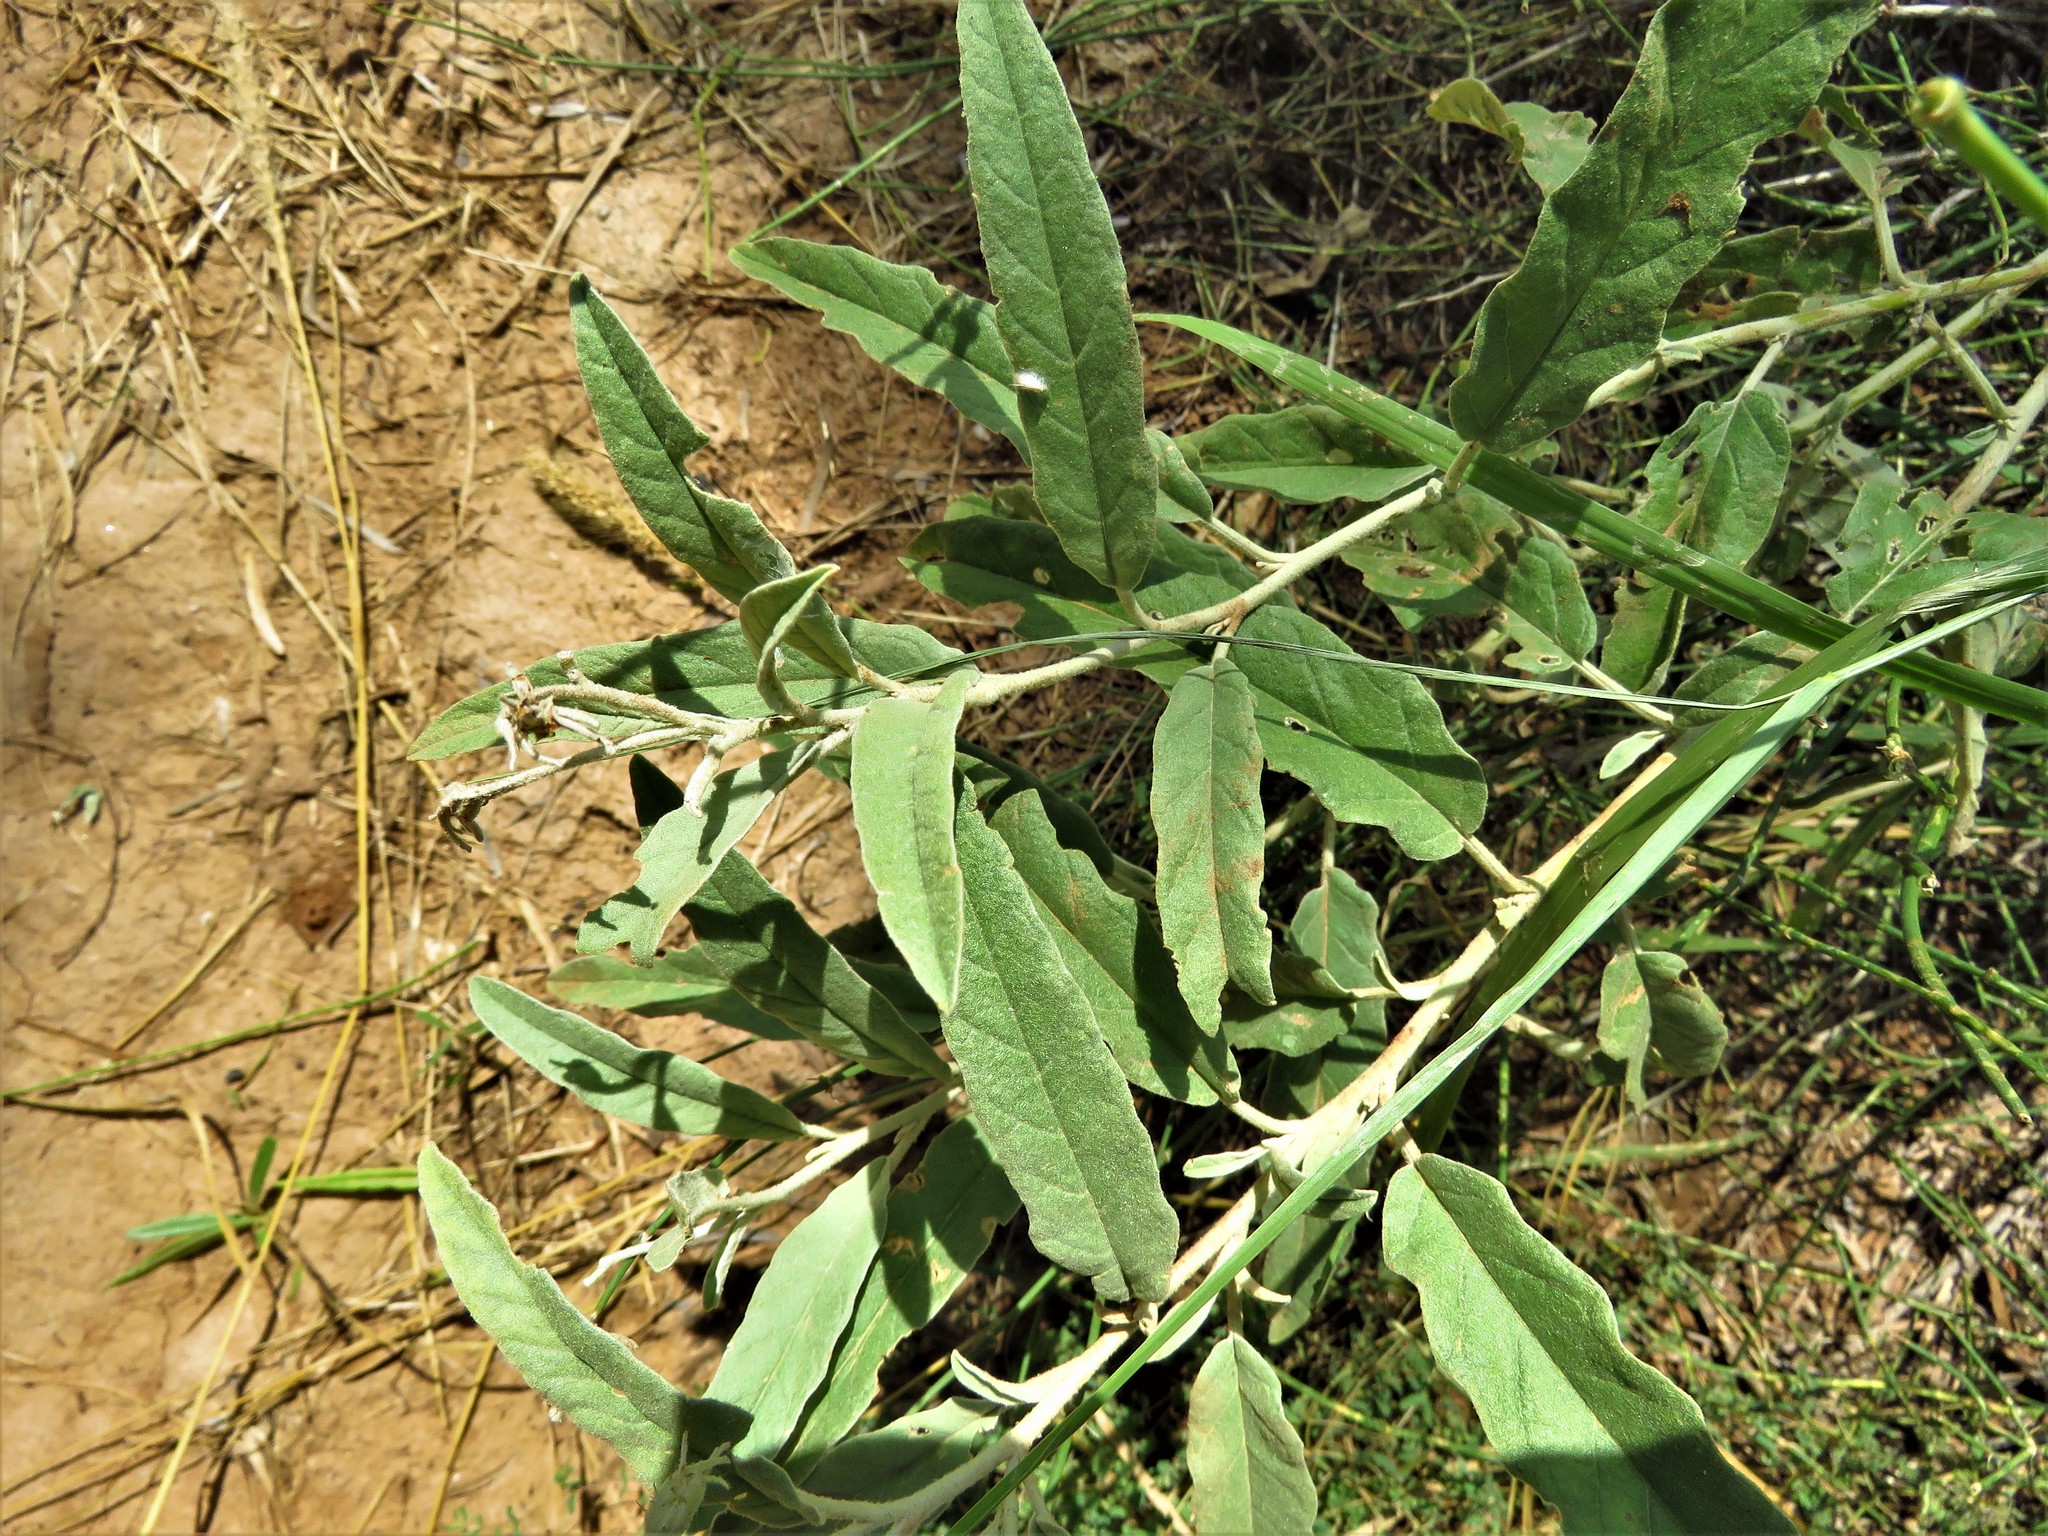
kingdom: Plantae
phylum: Tracheophyta
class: Magnoliopsida
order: Solanales
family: Solanaceae
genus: Solanum
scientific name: Solanum elaeagnifolium
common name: Silverleaf nightshade
